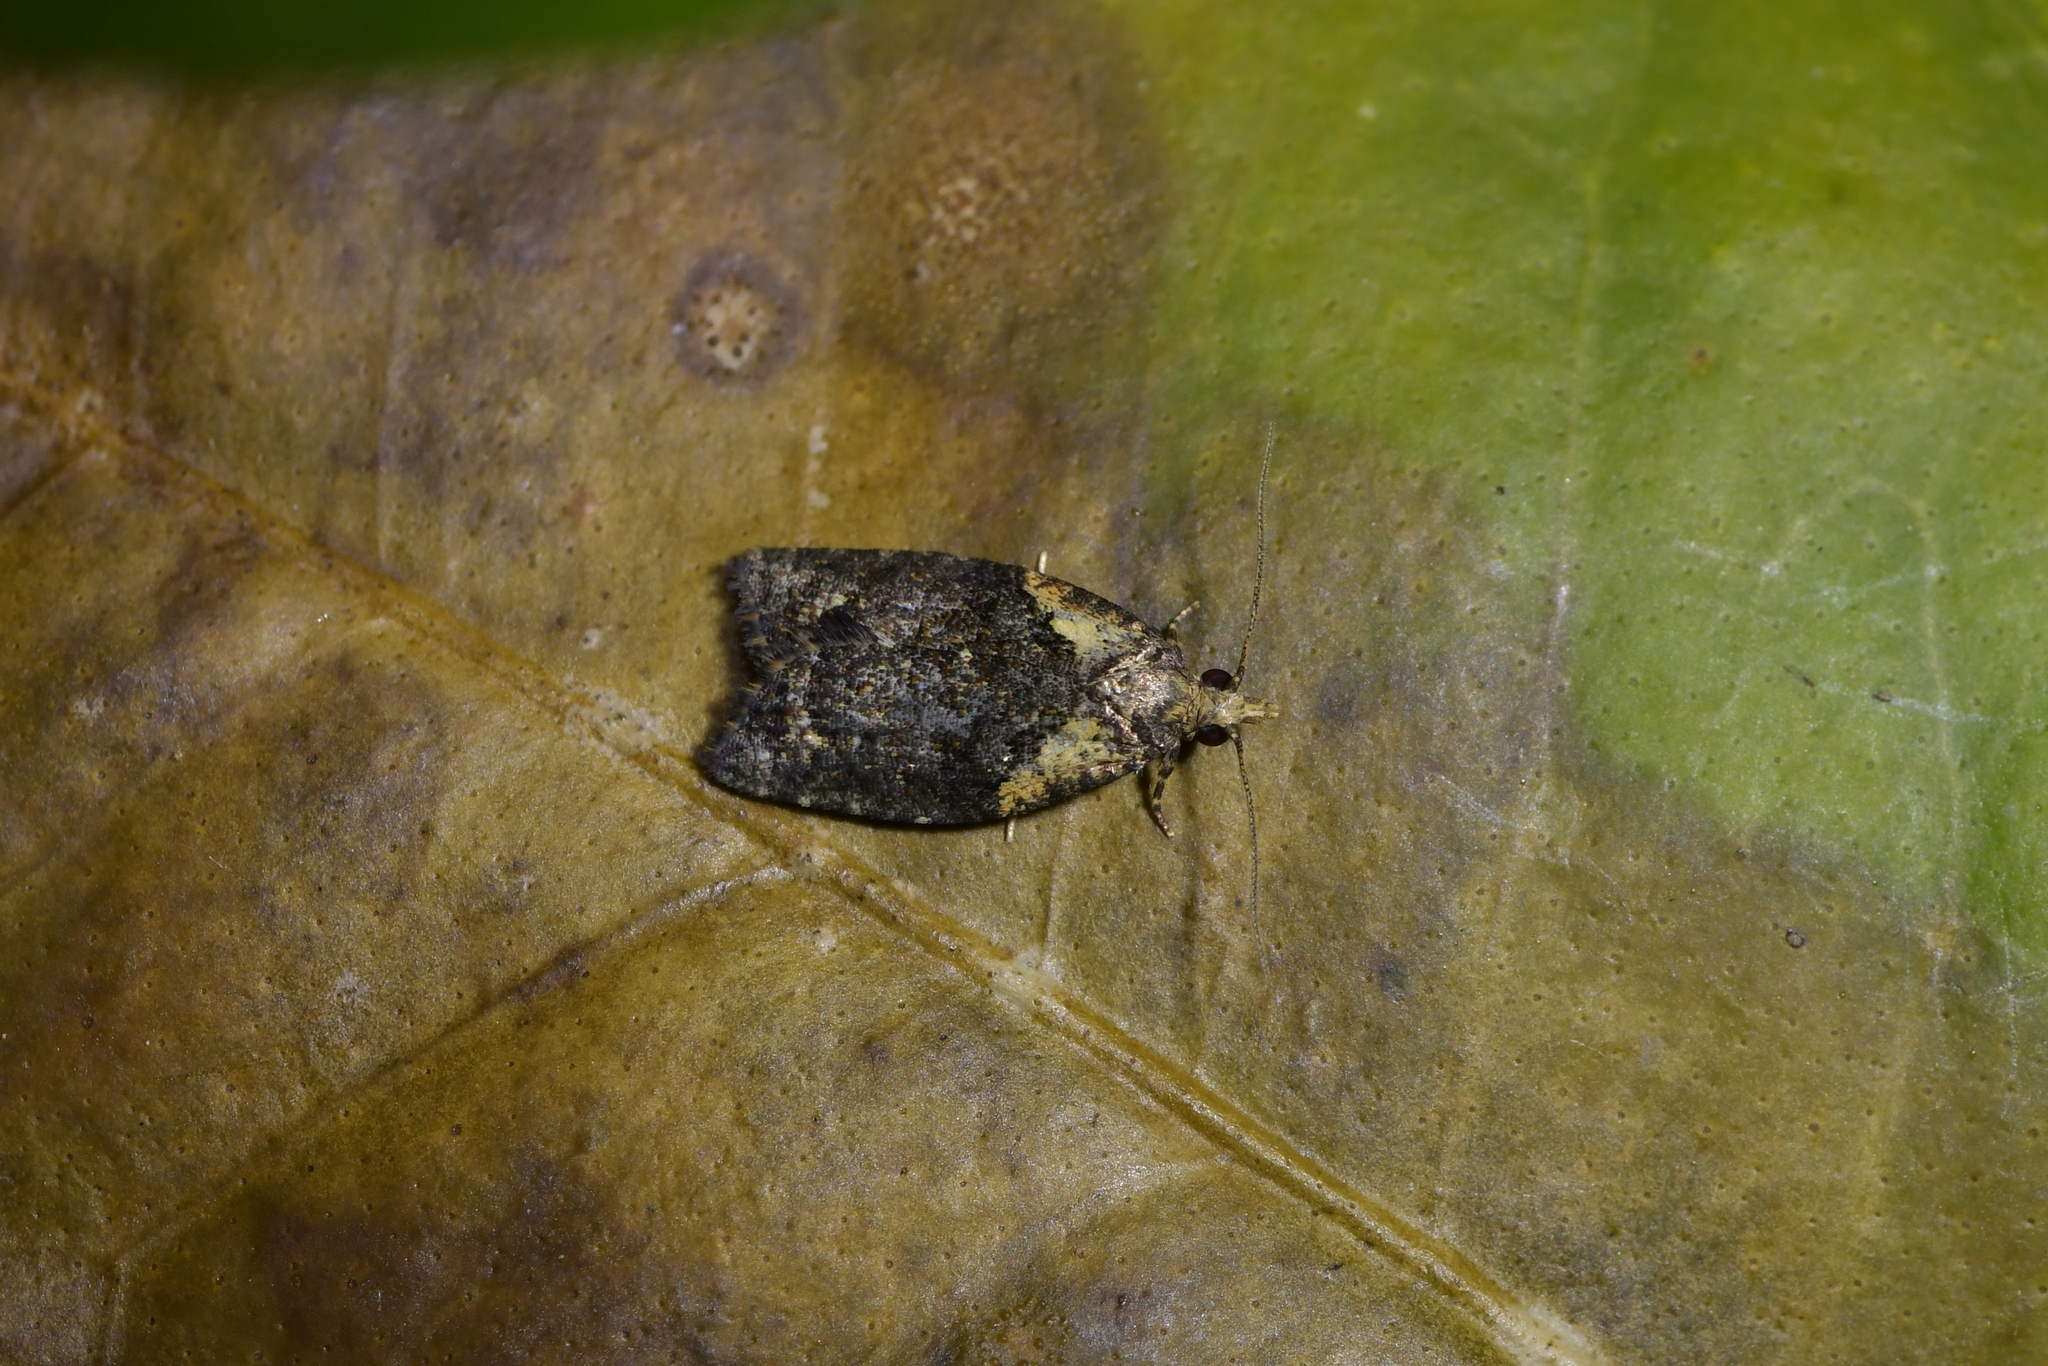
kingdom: Animalia
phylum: Arthropoda
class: Insecta
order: Lepidoptera
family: Tortricidae
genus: Capua
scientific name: Capua intractana
